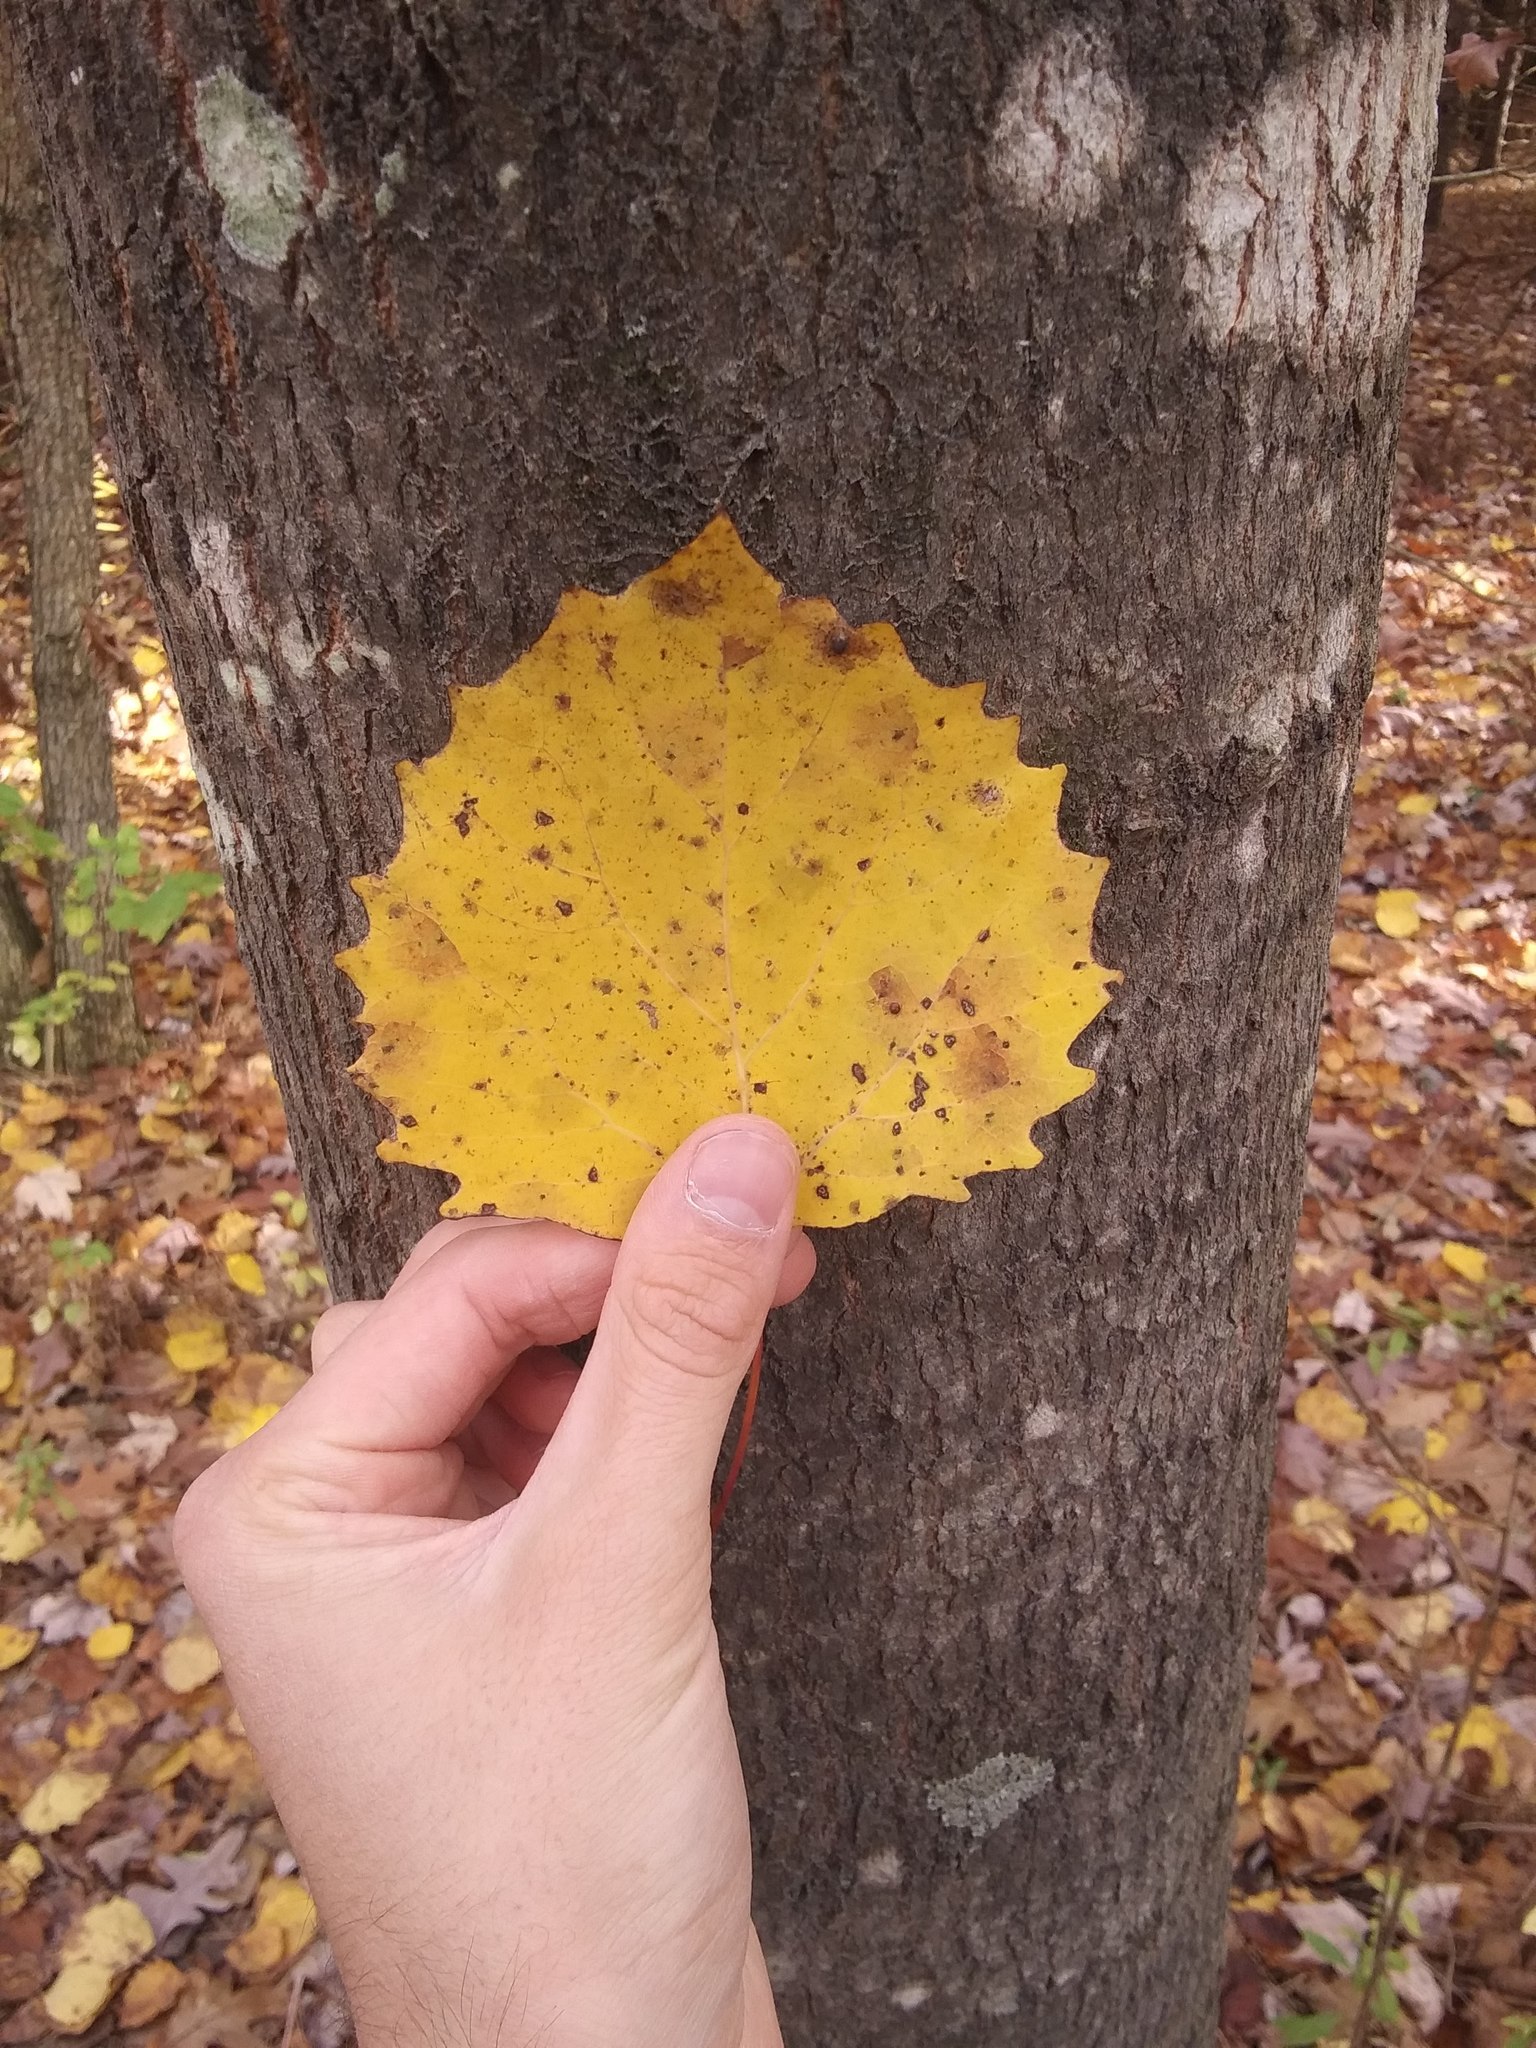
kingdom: Plantae
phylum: Tracheophyta
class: Magnoliopsida
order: Malpighiales
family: Salicaceae
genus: Populus
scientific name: Populus grandidentata
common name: Bigtooth aspen
